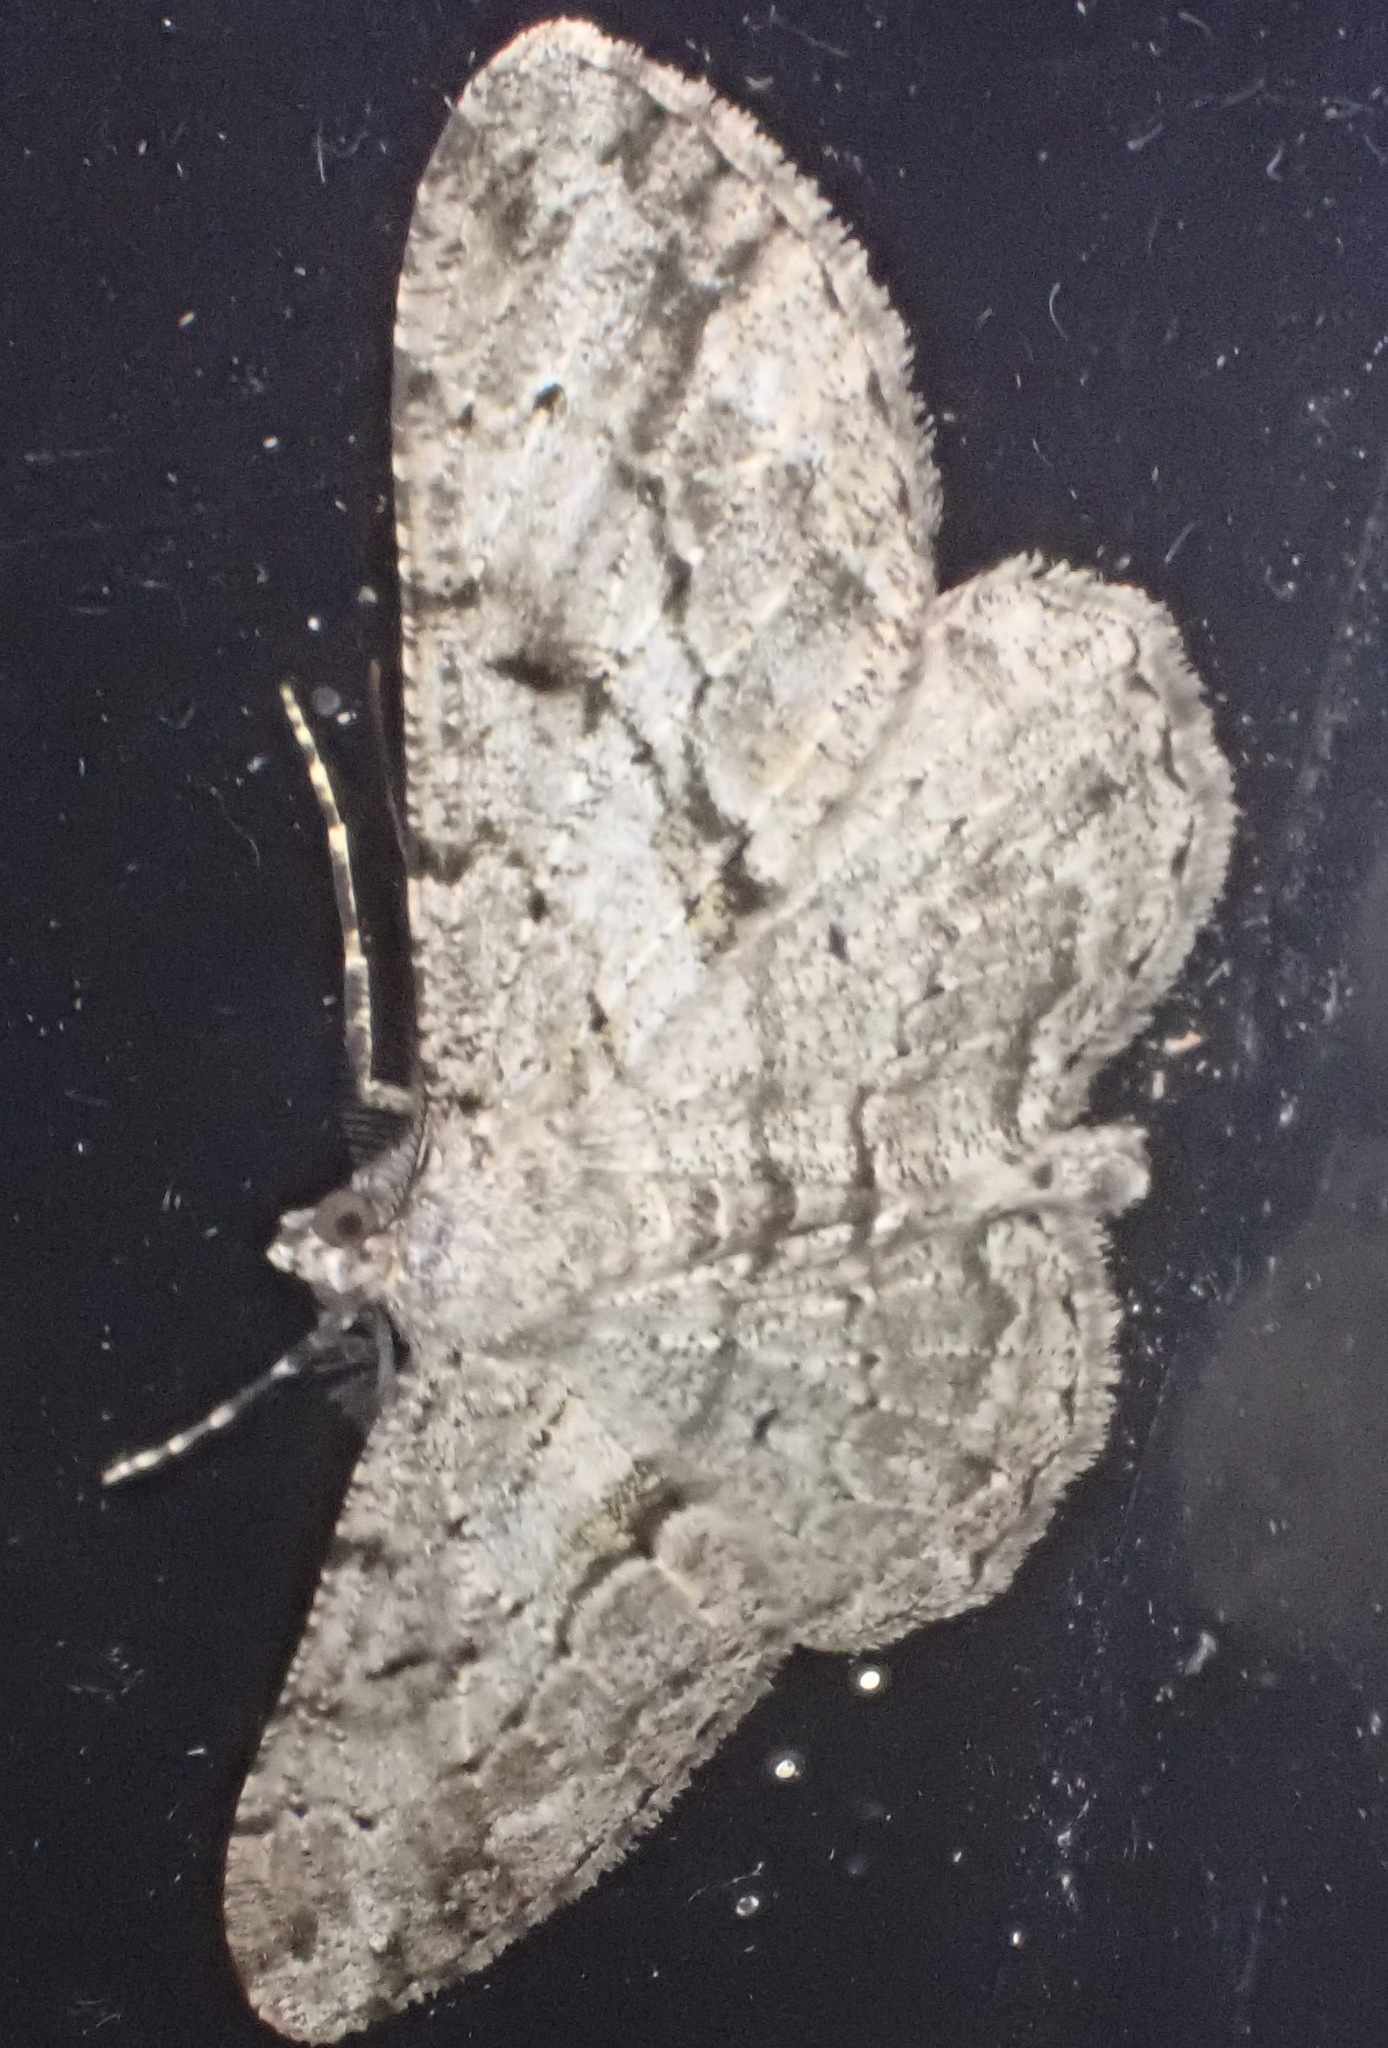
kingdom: Animalia
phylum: Arthropoda
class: Insecta
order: Lepidoptera
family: Geometridae
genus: Peribatodes
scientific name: Peribatodes rhomboidaria
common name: Willow beauty
